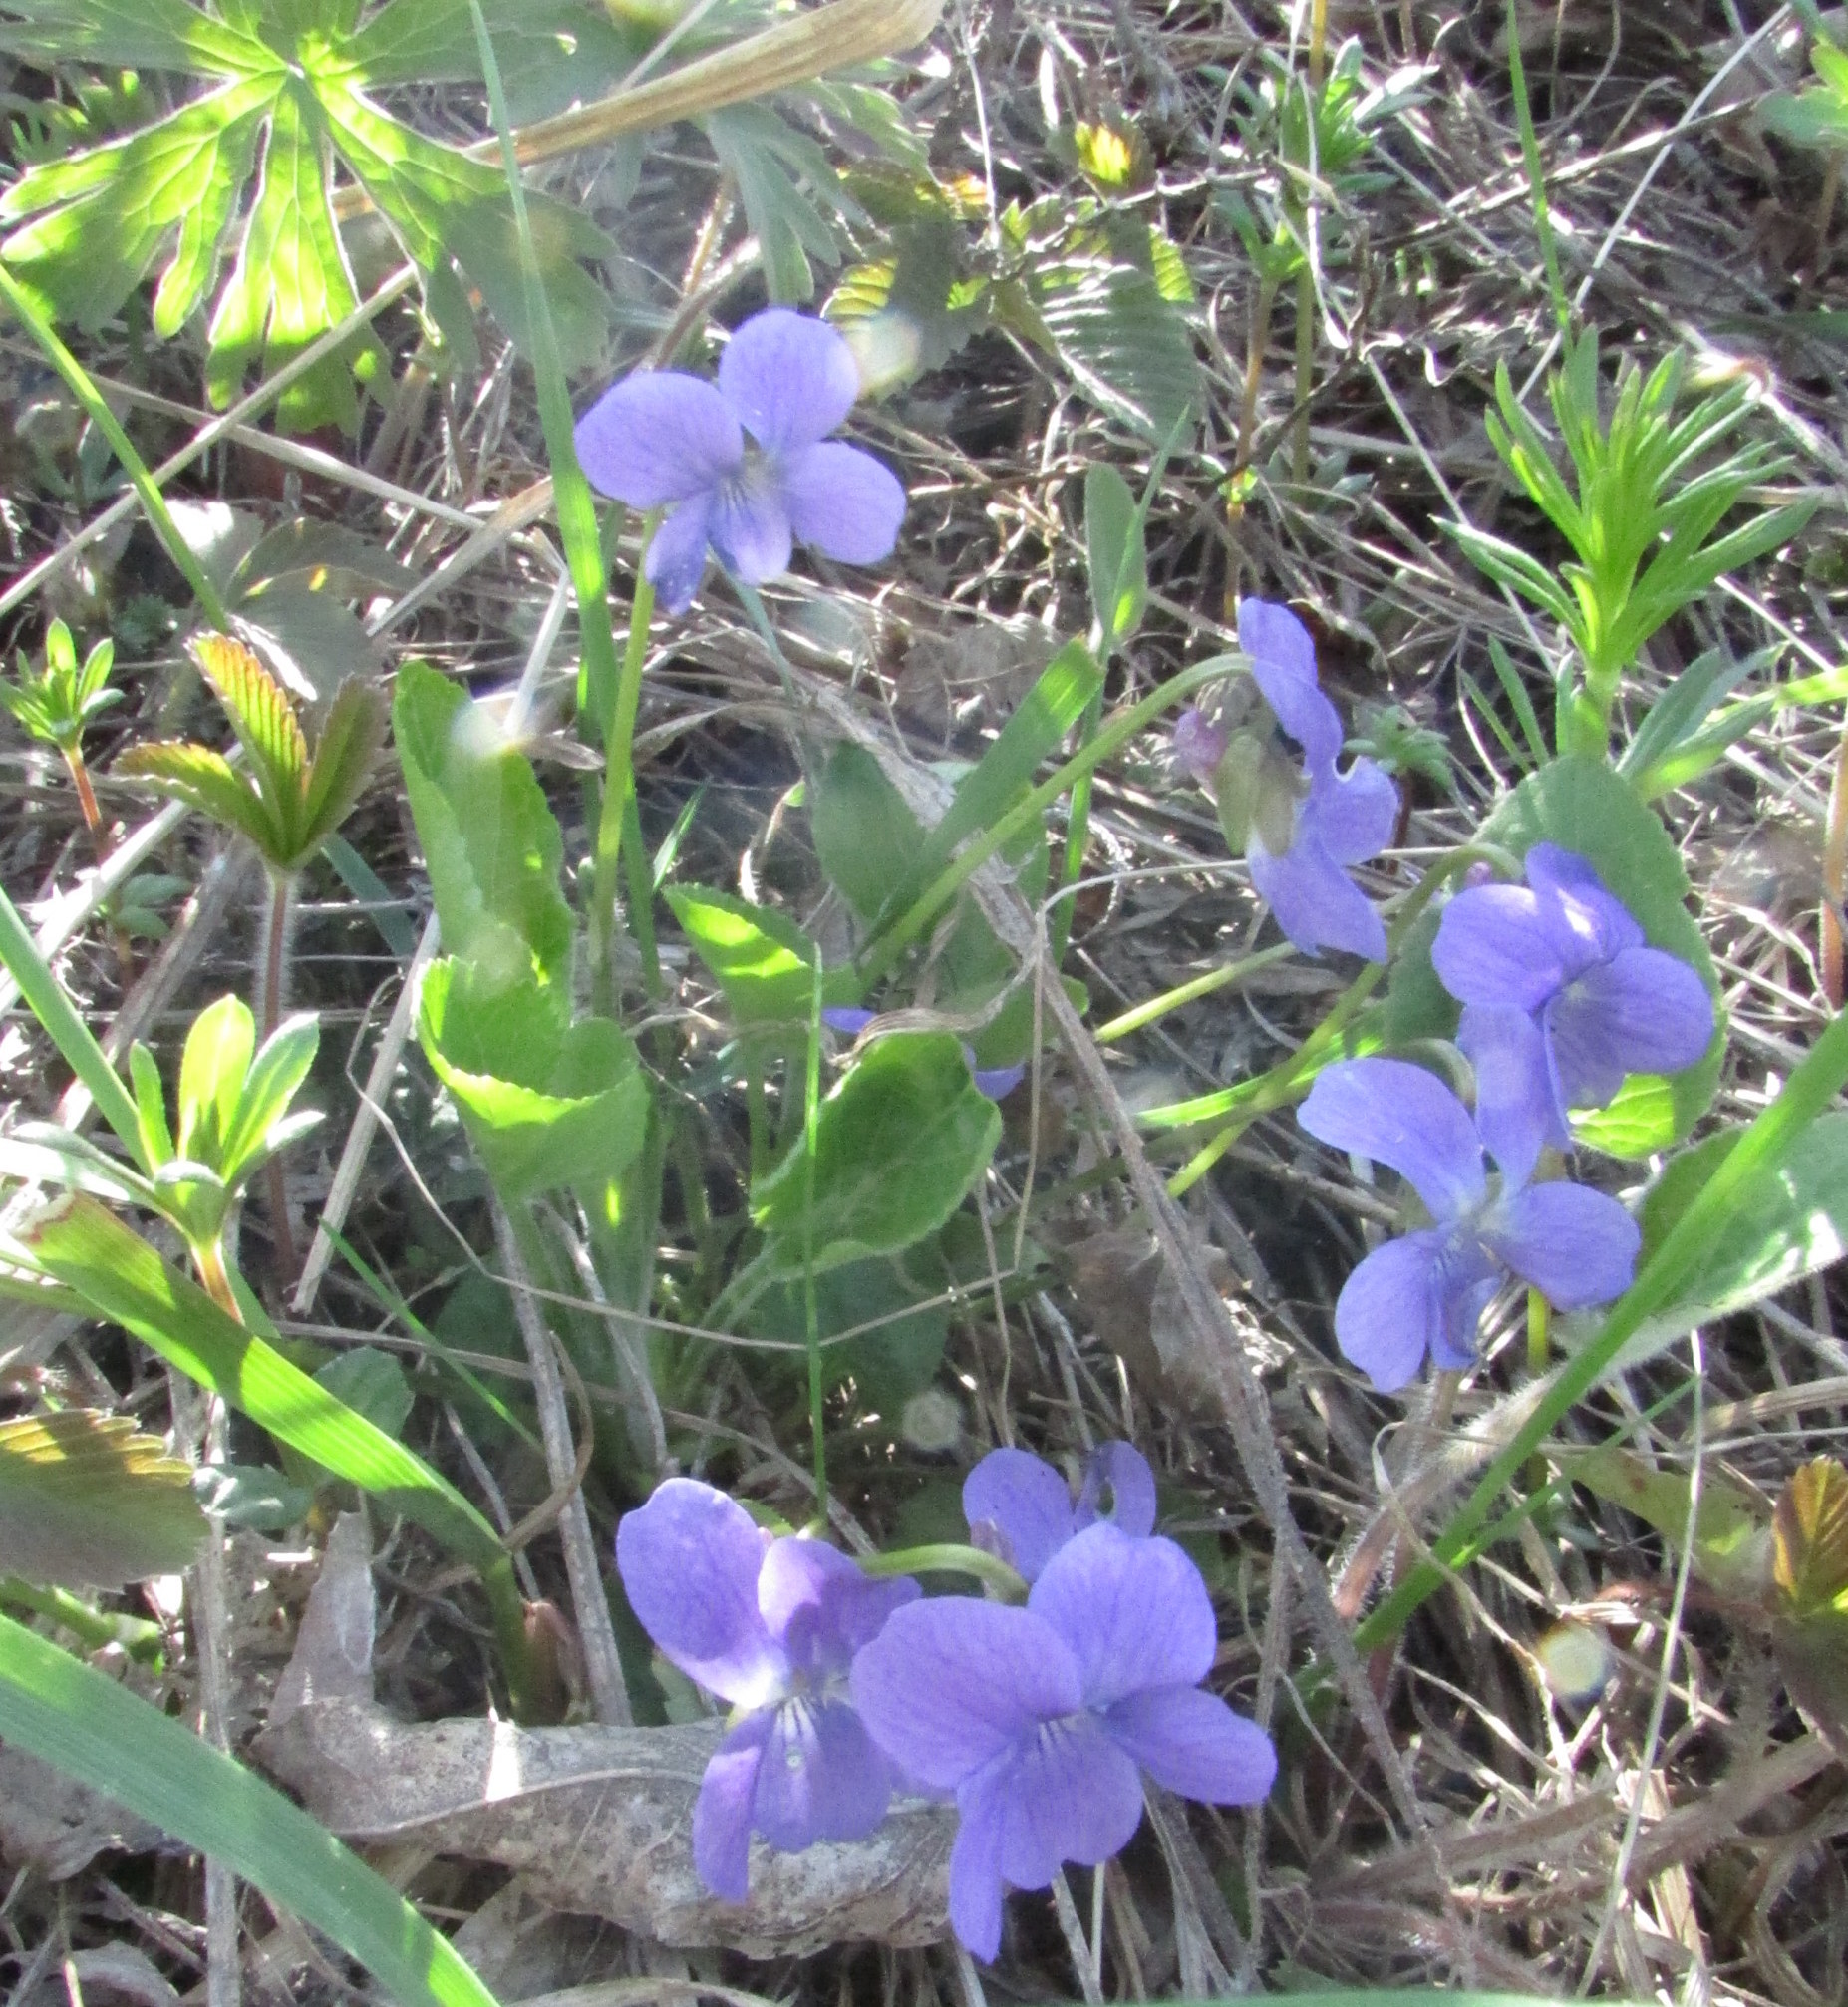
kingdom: Plantae
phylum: Tracheophyta
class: Magnoliopsida
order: Malpighiales
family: Violaceae
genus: Viola
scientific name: Viola hirta
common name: Hairy violet
